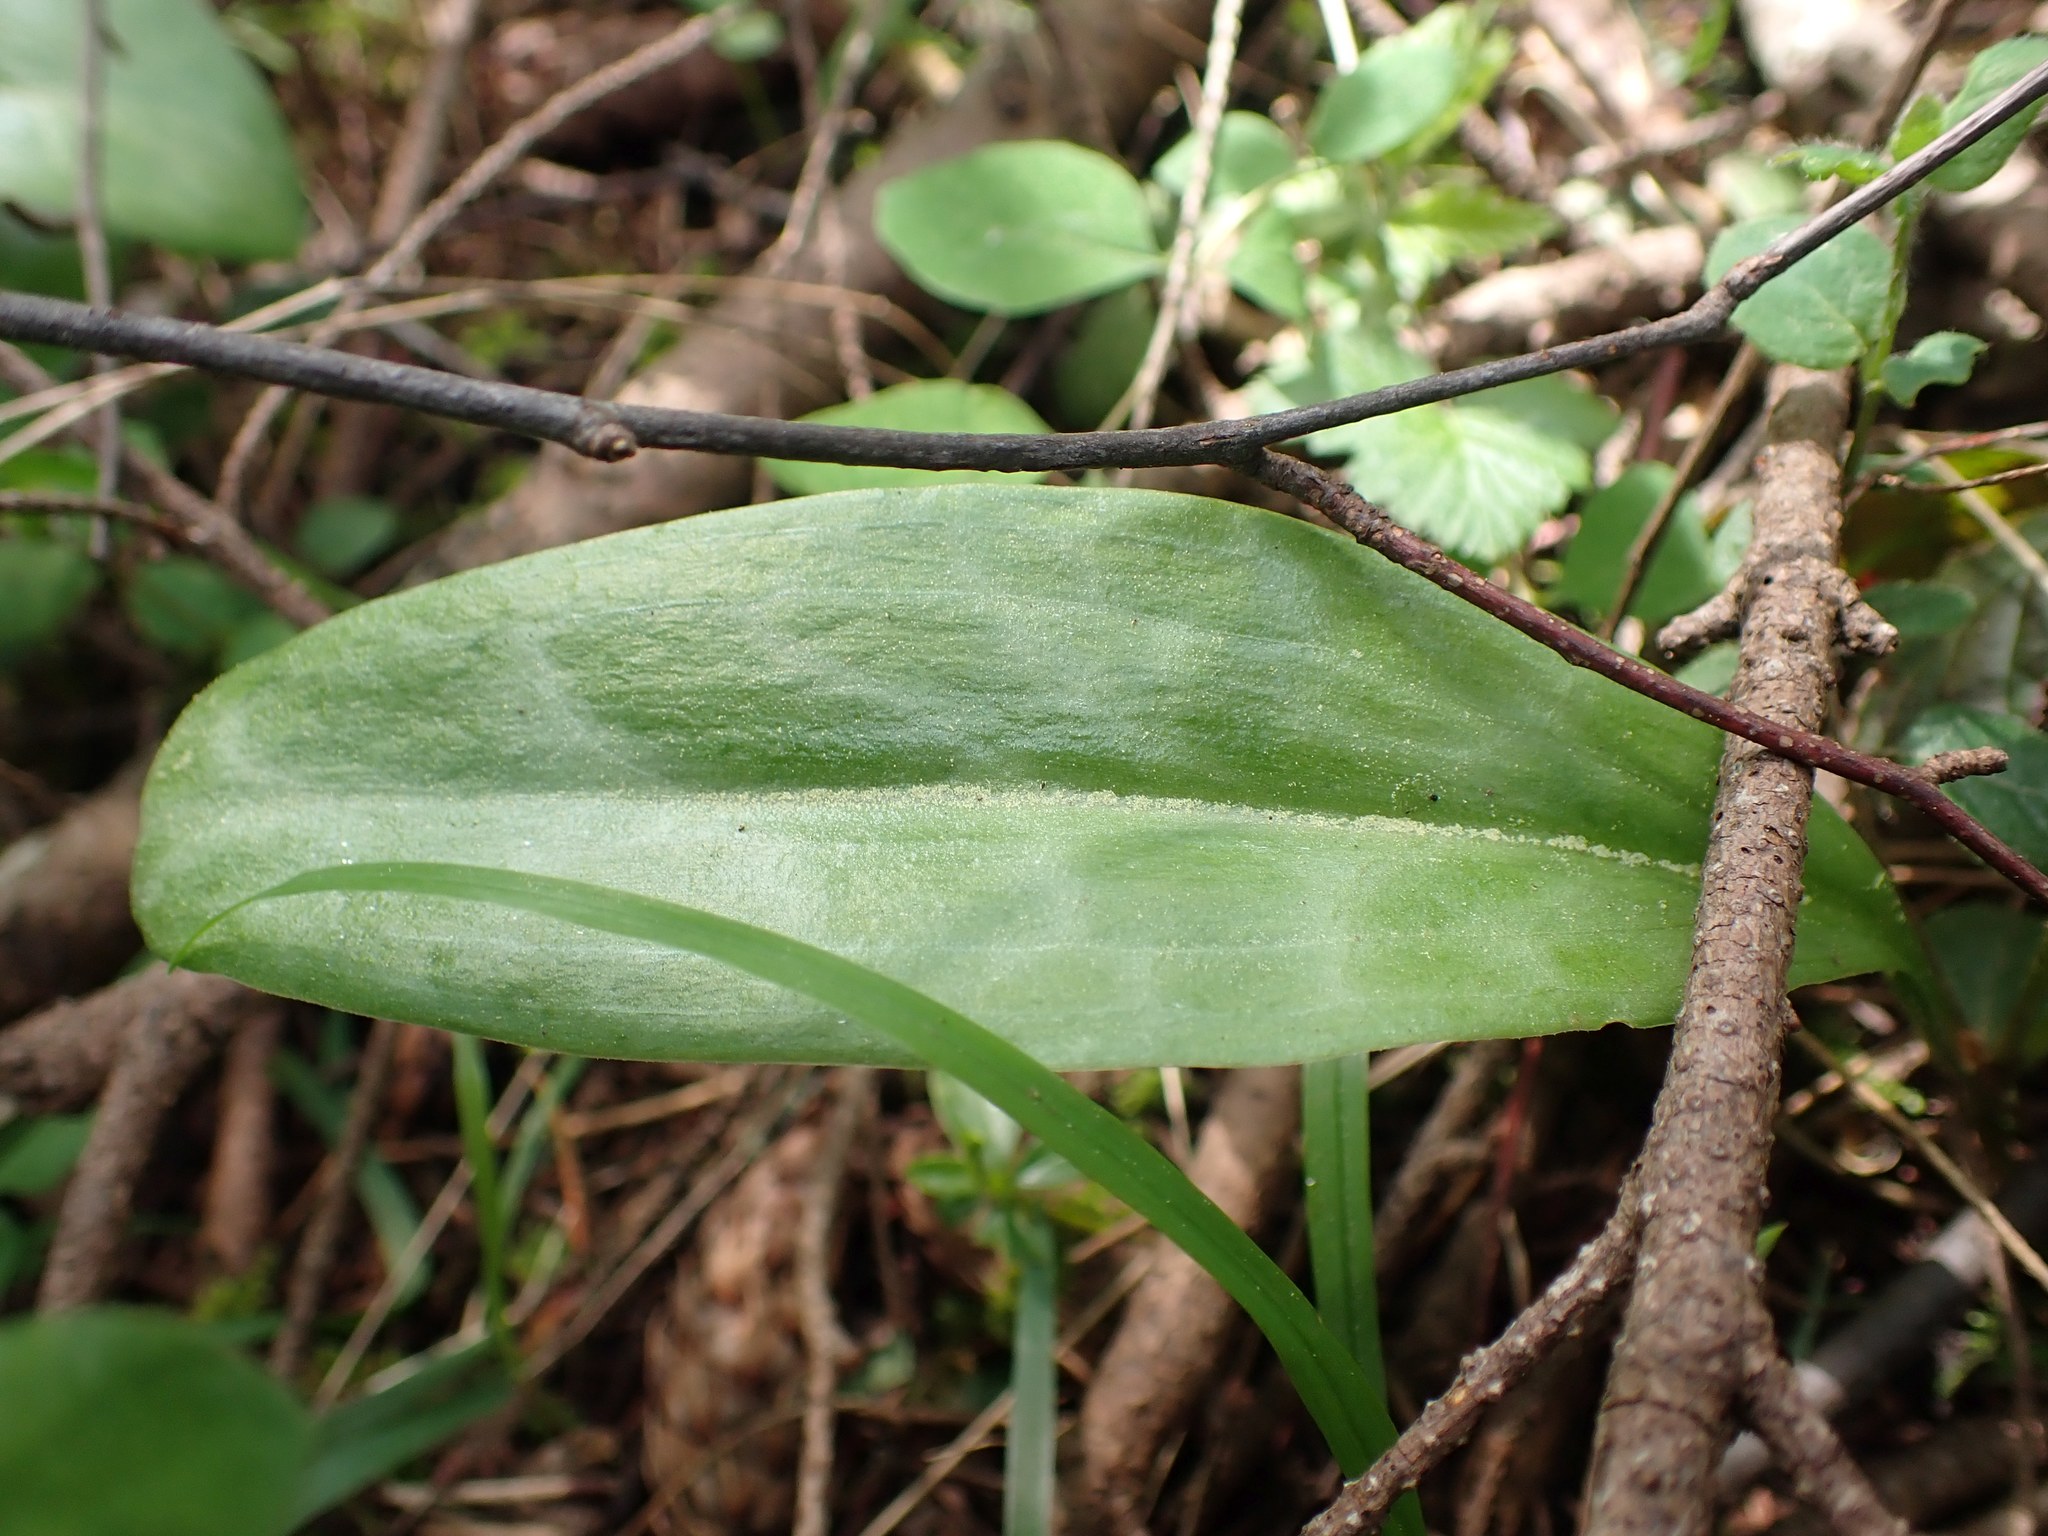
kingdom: Plantae
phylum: Tracheophyta
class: Liliopsida
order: Liliales
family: Liliaceae
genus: Erythronium
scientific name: Erythronium oregonum
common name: Giant adder's-tongue
